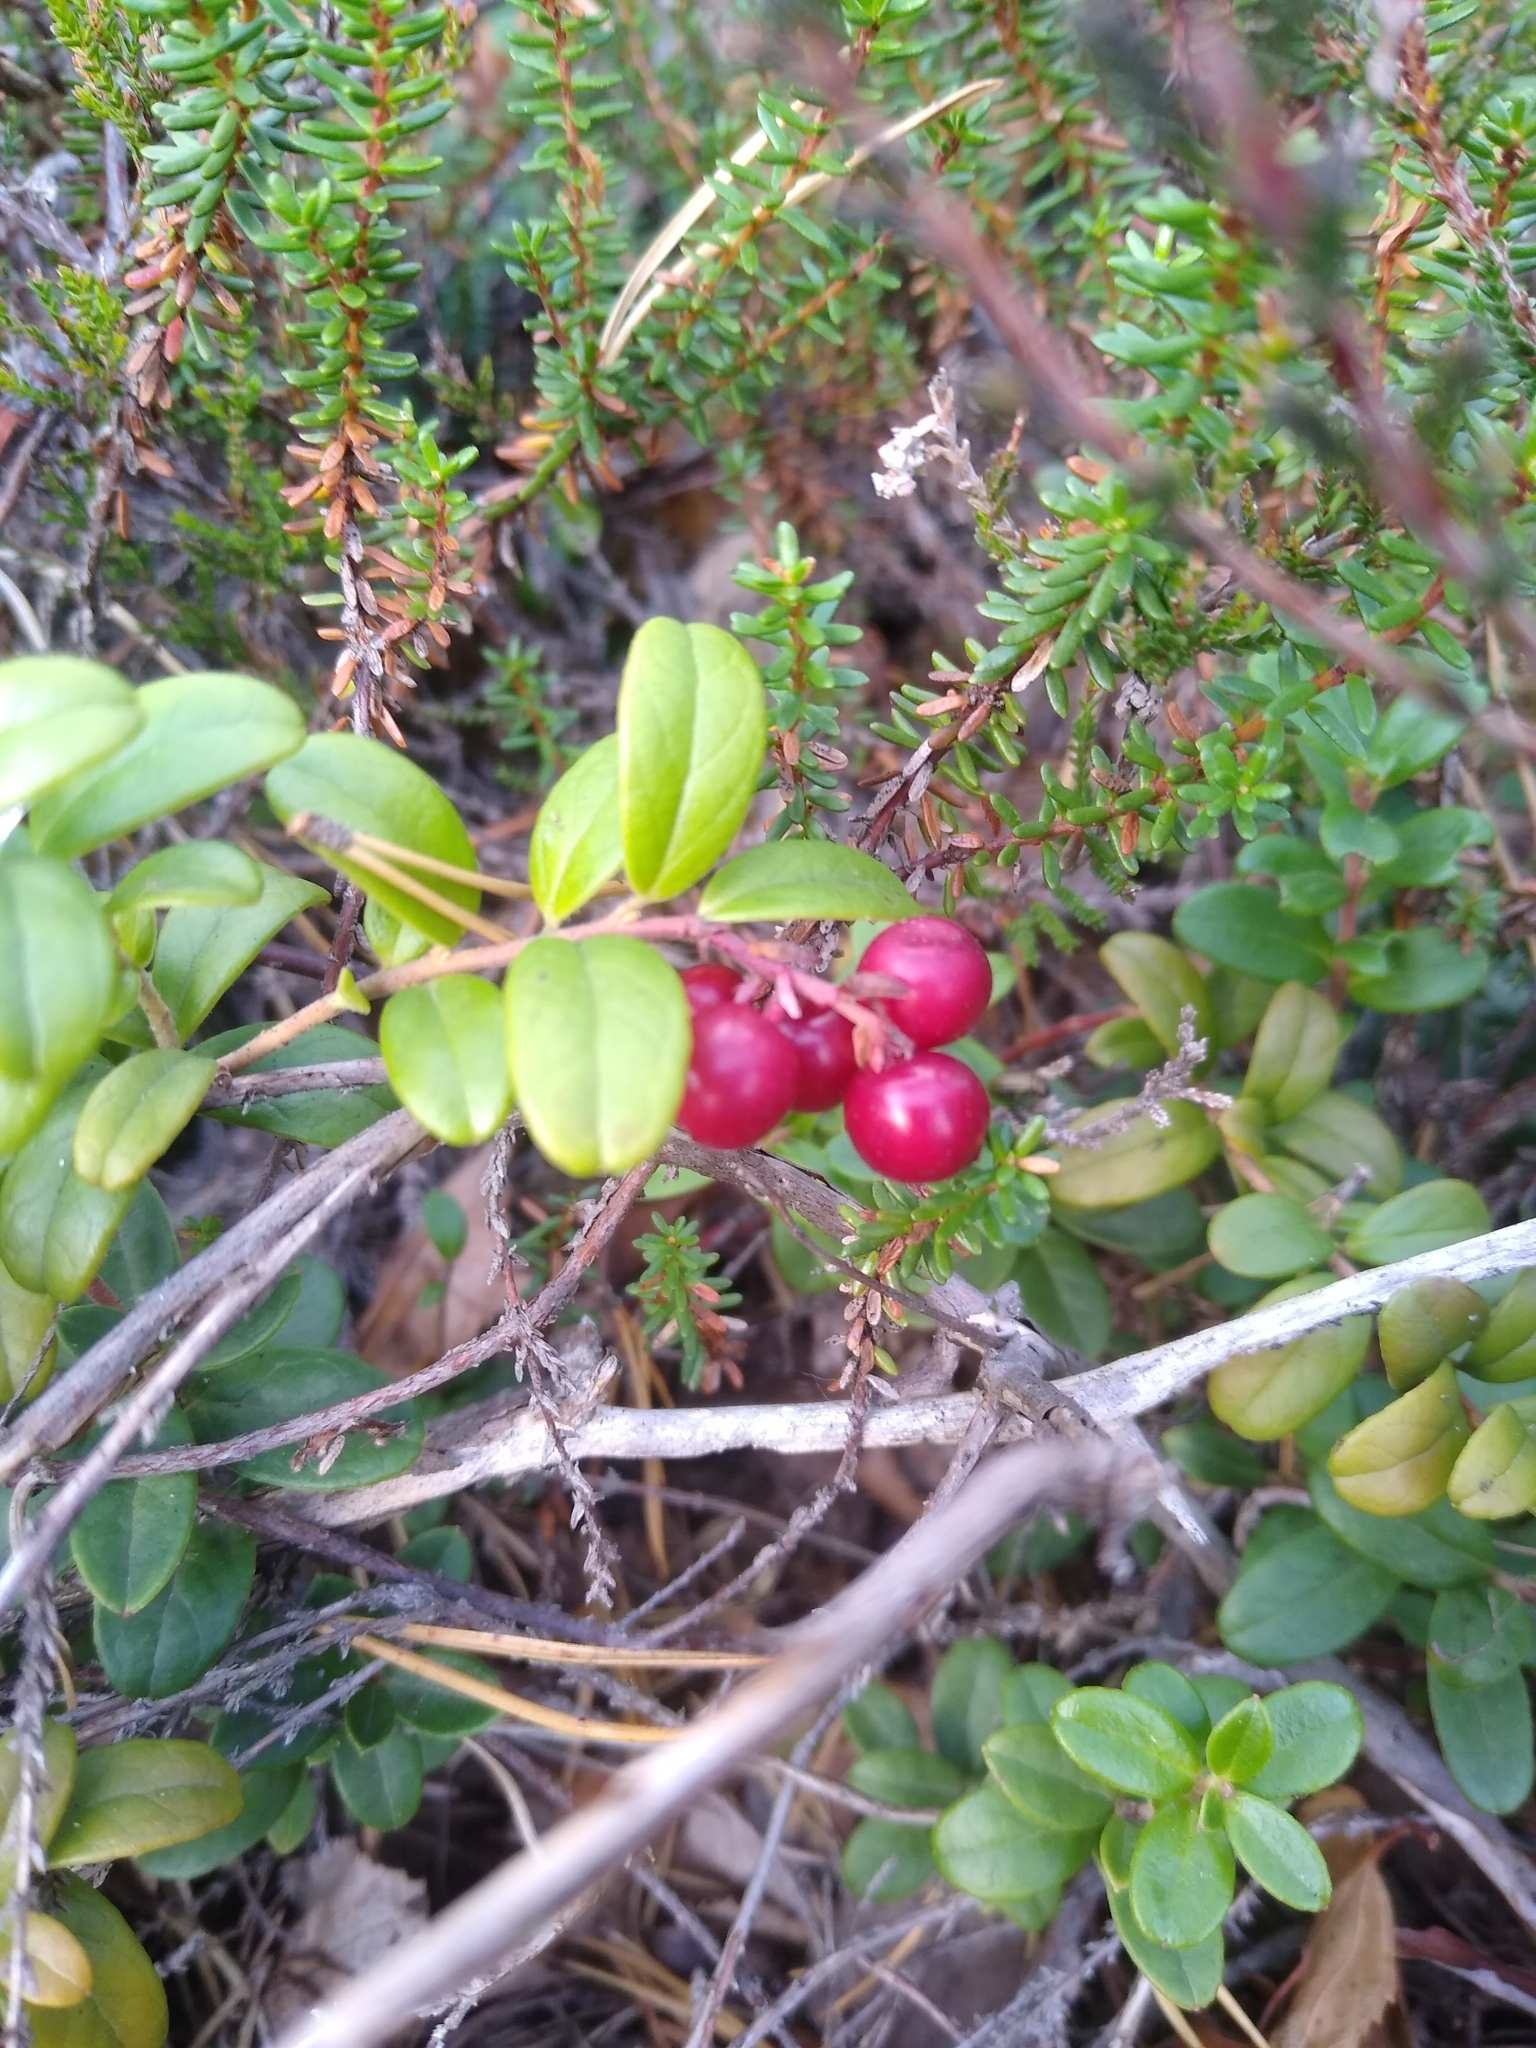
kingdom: Plantae
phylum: Tracheophyta
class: Magnoliopsida
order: Ericales
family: Ericaceae
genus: Vaccinium
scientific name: Vaccinium vitis-idaea
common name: Cowberry
